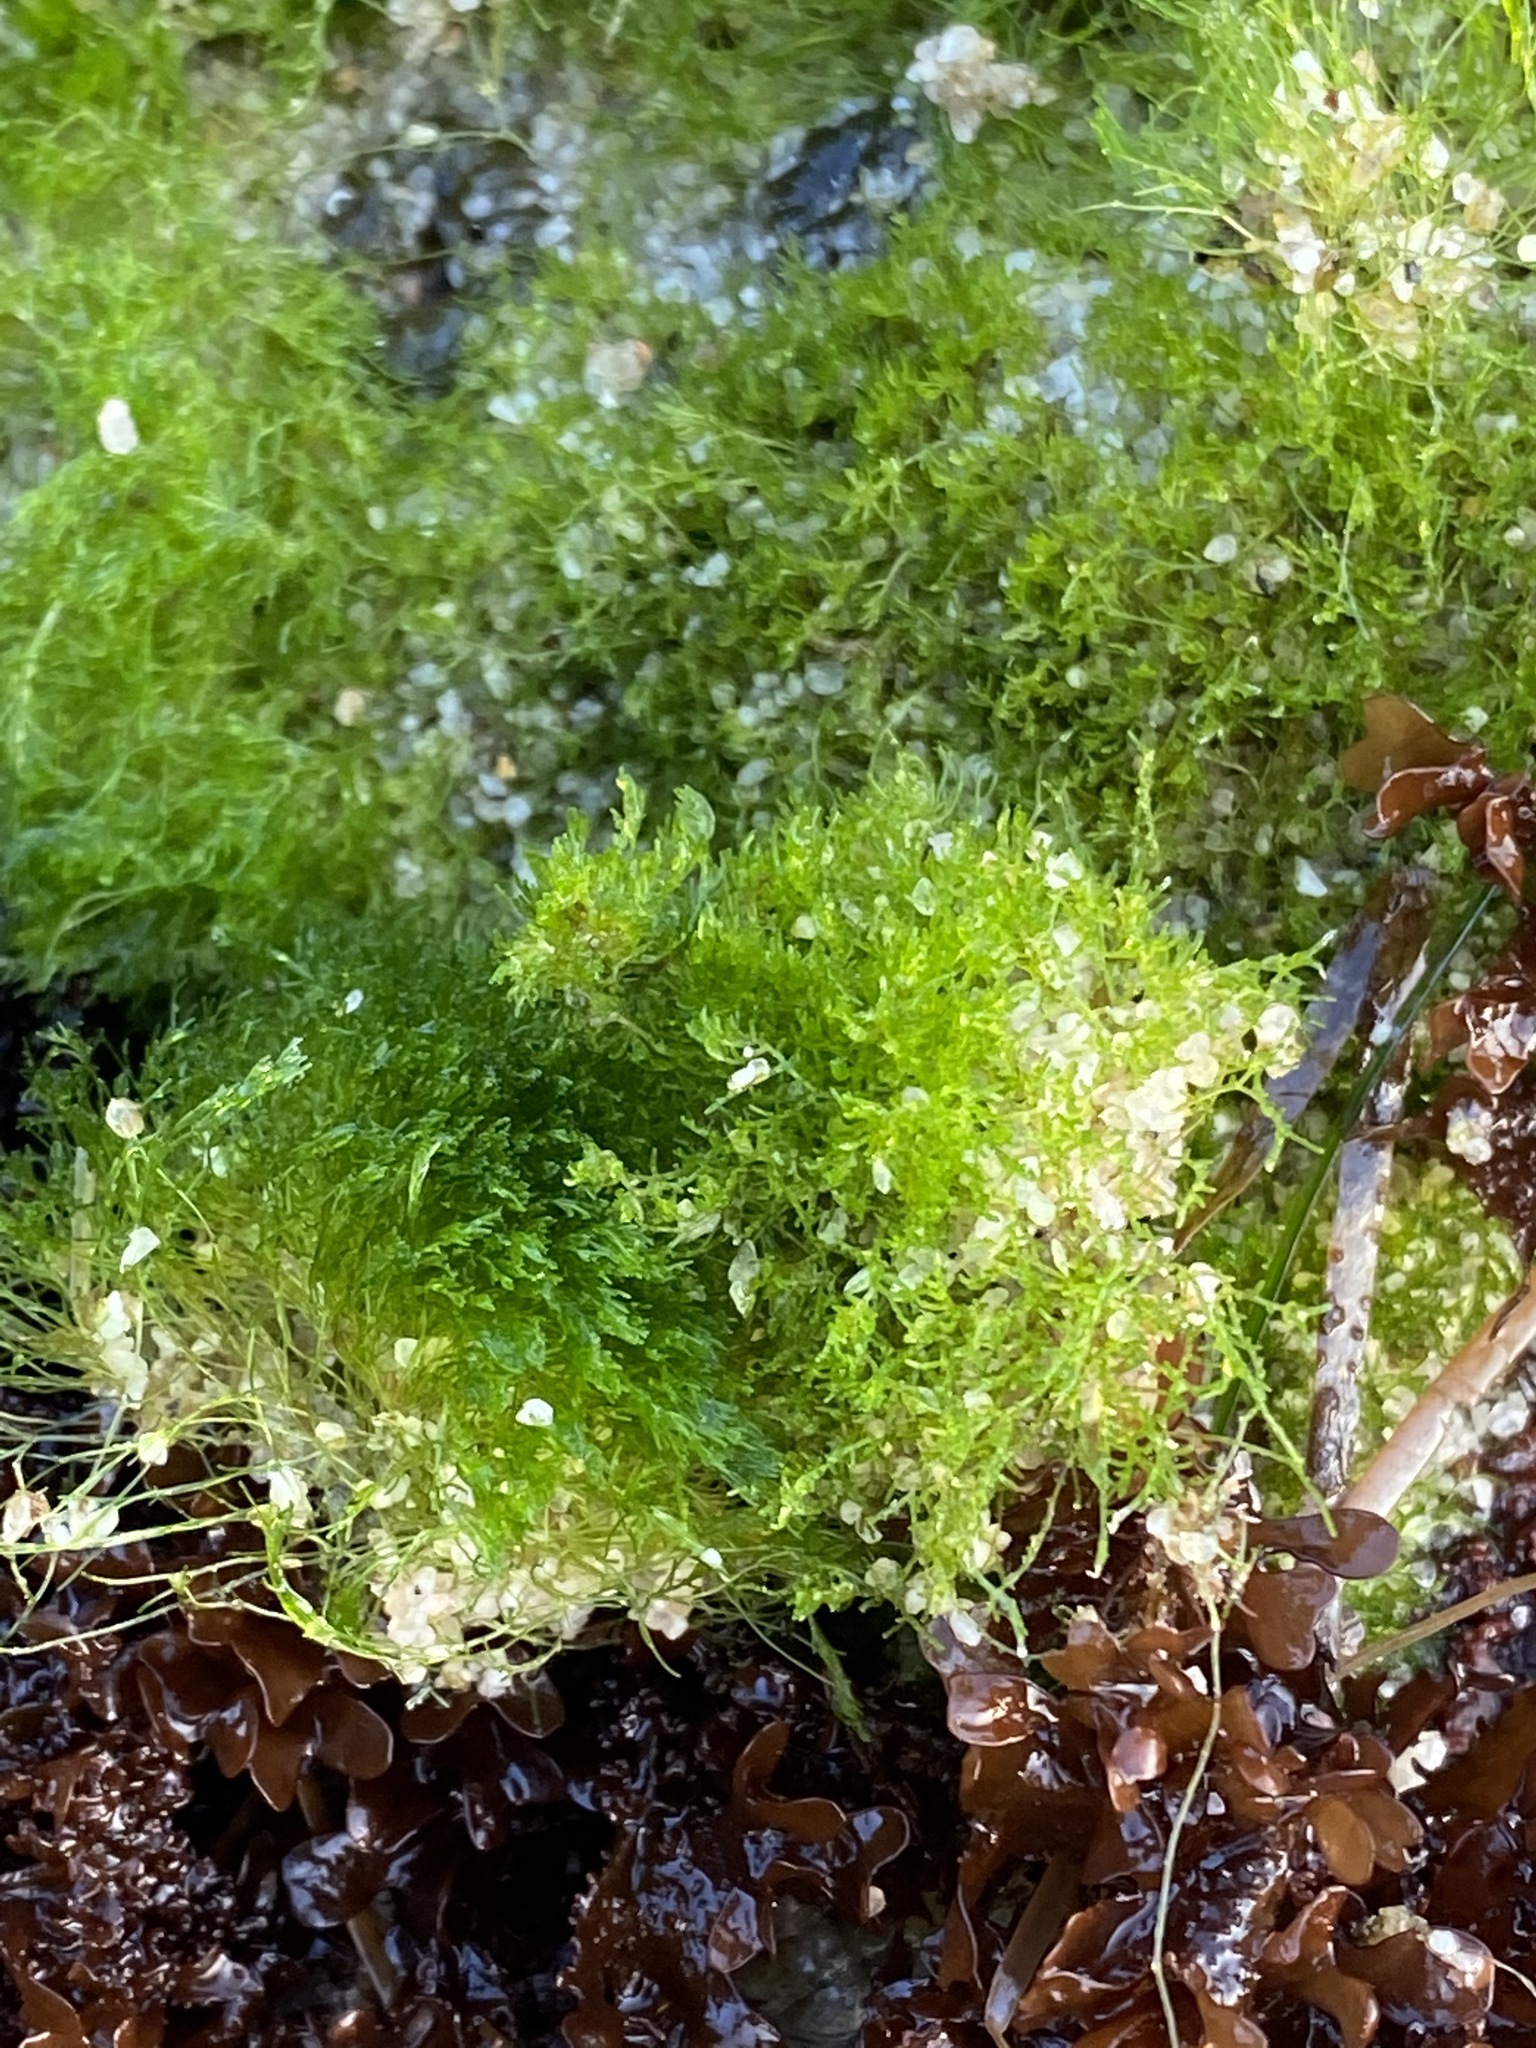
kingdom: Plantae
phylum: Chlorophyta
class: Ulvophyceae
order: Cladophorales
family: Cladophoraceae
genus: Cladophora
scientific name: Cladophora columbiana
